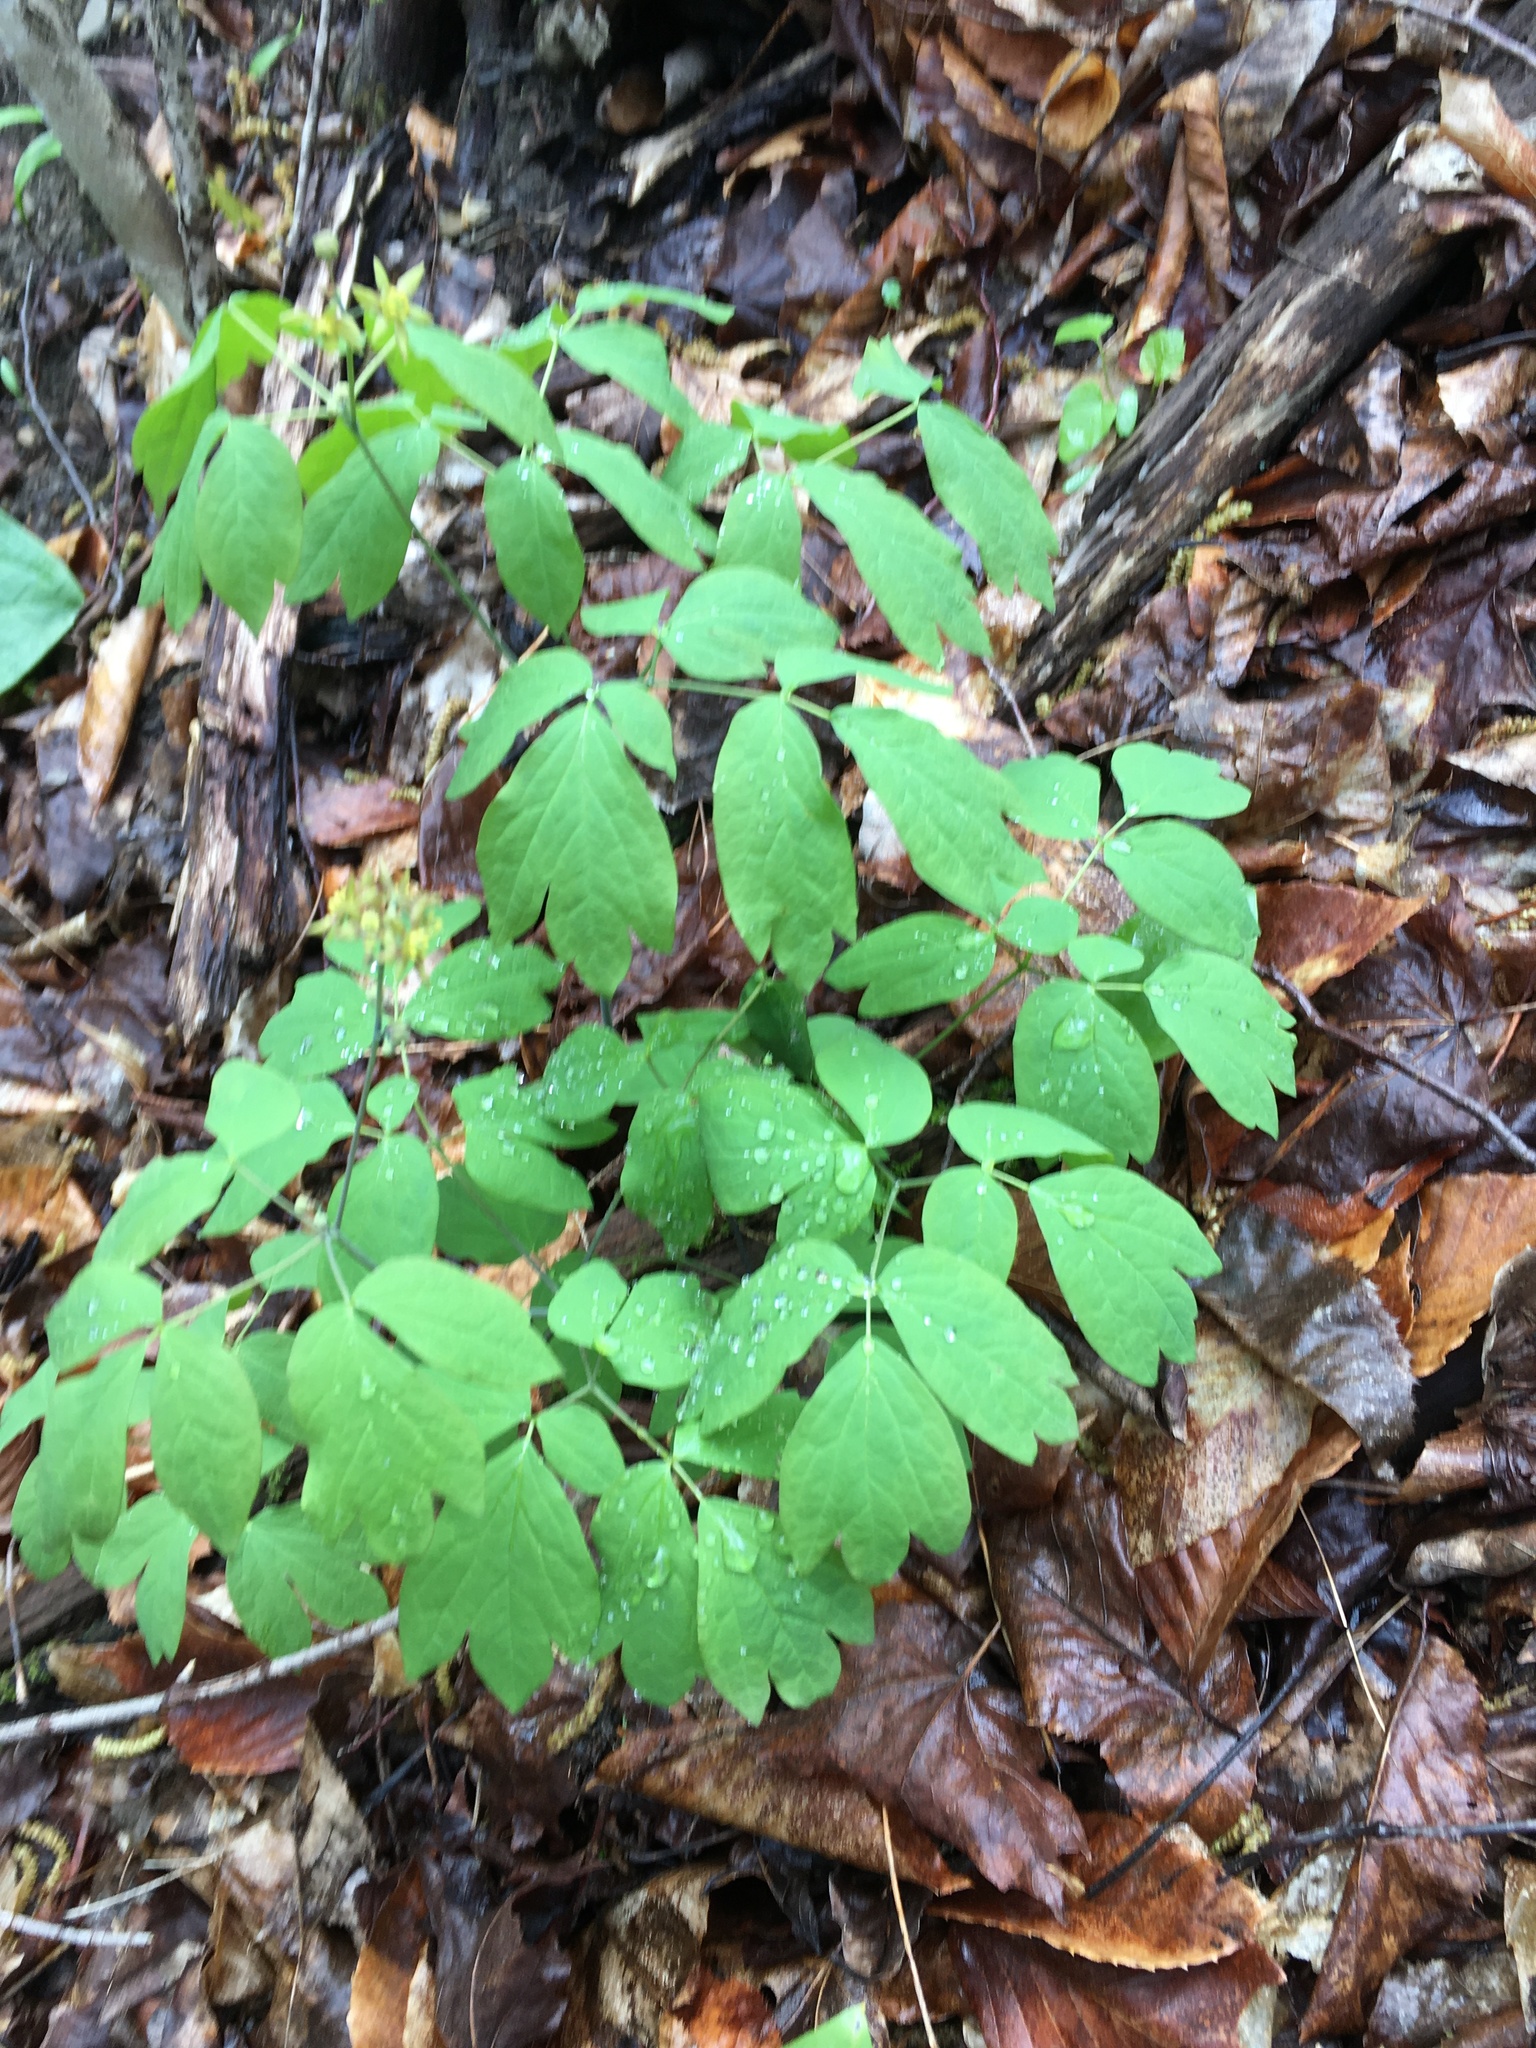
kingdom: Plantae
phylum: Tracheophyta
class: Magnoliopsida
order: Ranunculales
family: Berberidaceae
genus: Caulophyllum
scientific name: Caulophyllum thalictroides
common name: Blue cohosh
